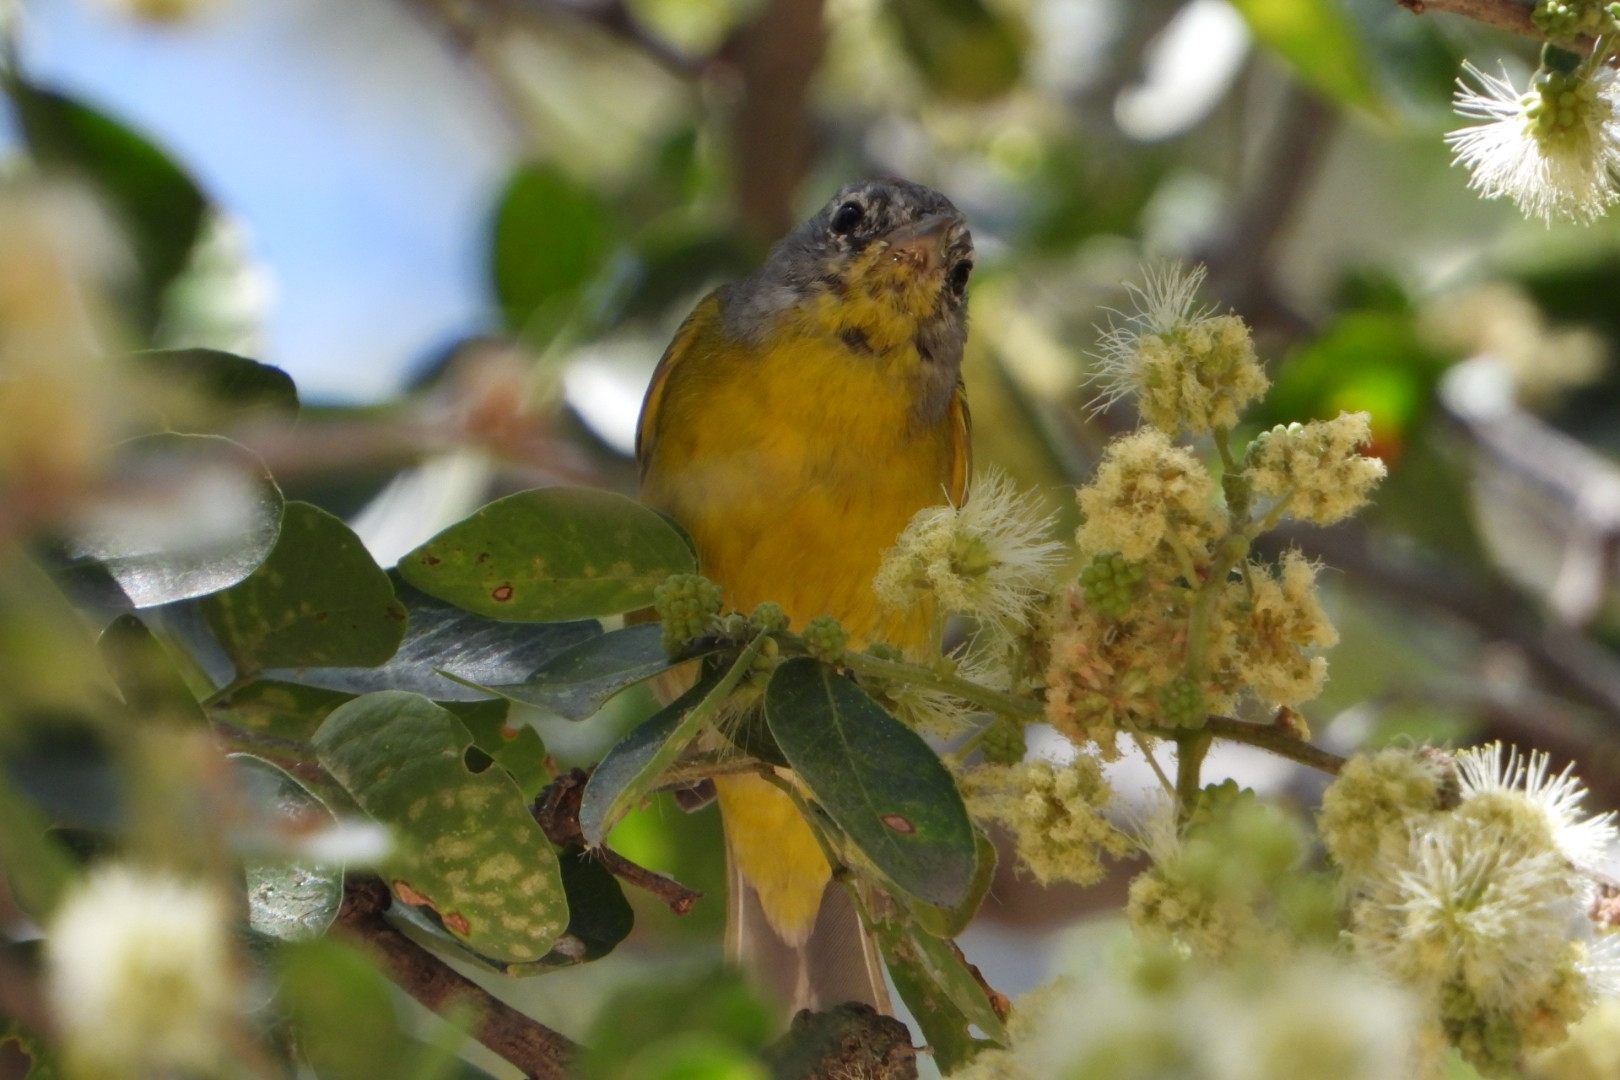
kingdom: Animalia
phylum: Chordata
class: Aves
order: Passeriformes
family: Parulidae
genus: Leiothlypis
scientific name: Leiothlypis ruficapilla
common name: Nashville warbler
